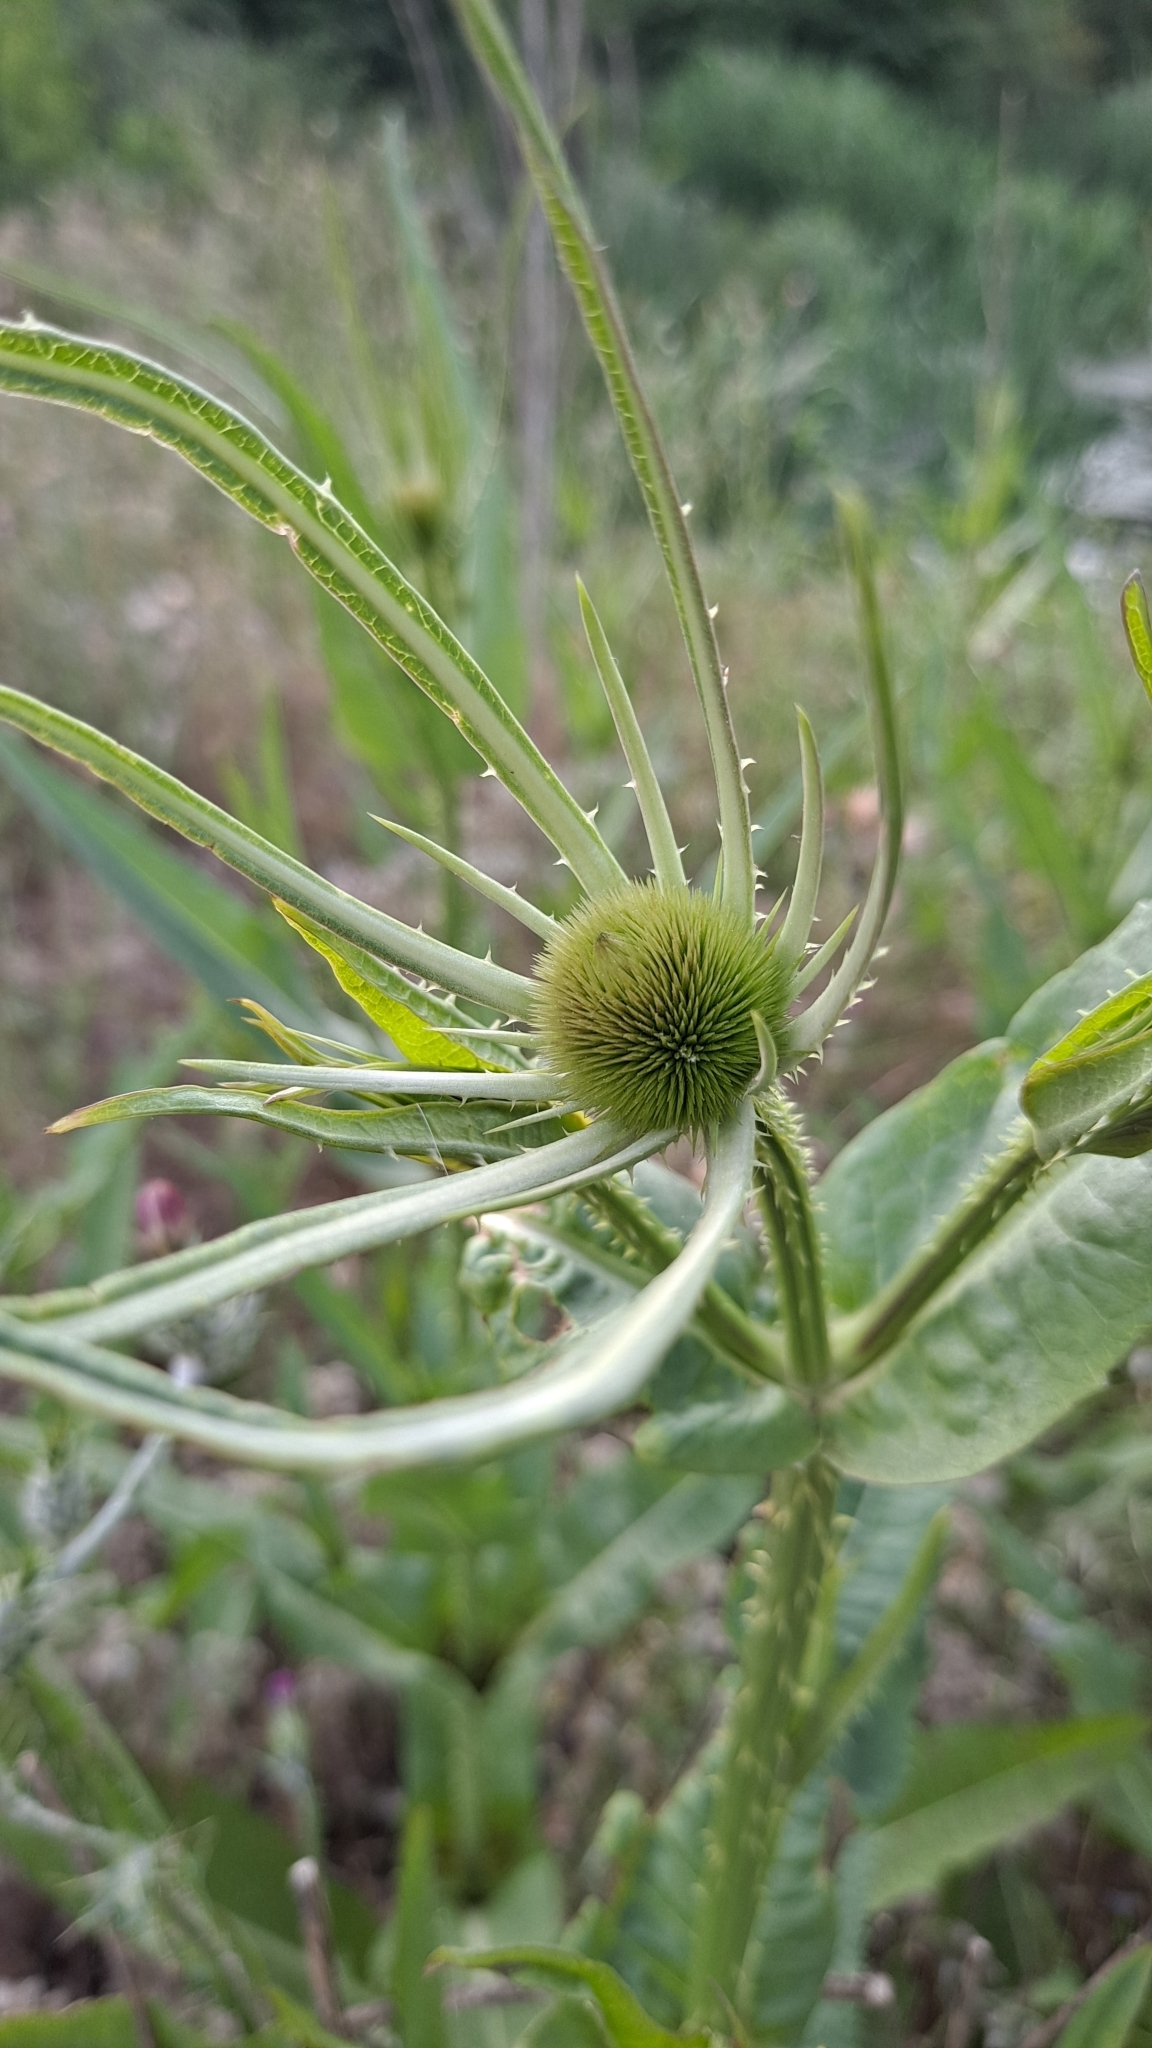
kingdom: Plantae
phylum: Tracheophyta
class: Magnoliopsida
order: Dipsacales
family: Caprifoliaceae
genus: Dipsacus
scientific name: Dipsacus fullonum
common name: Teasel
